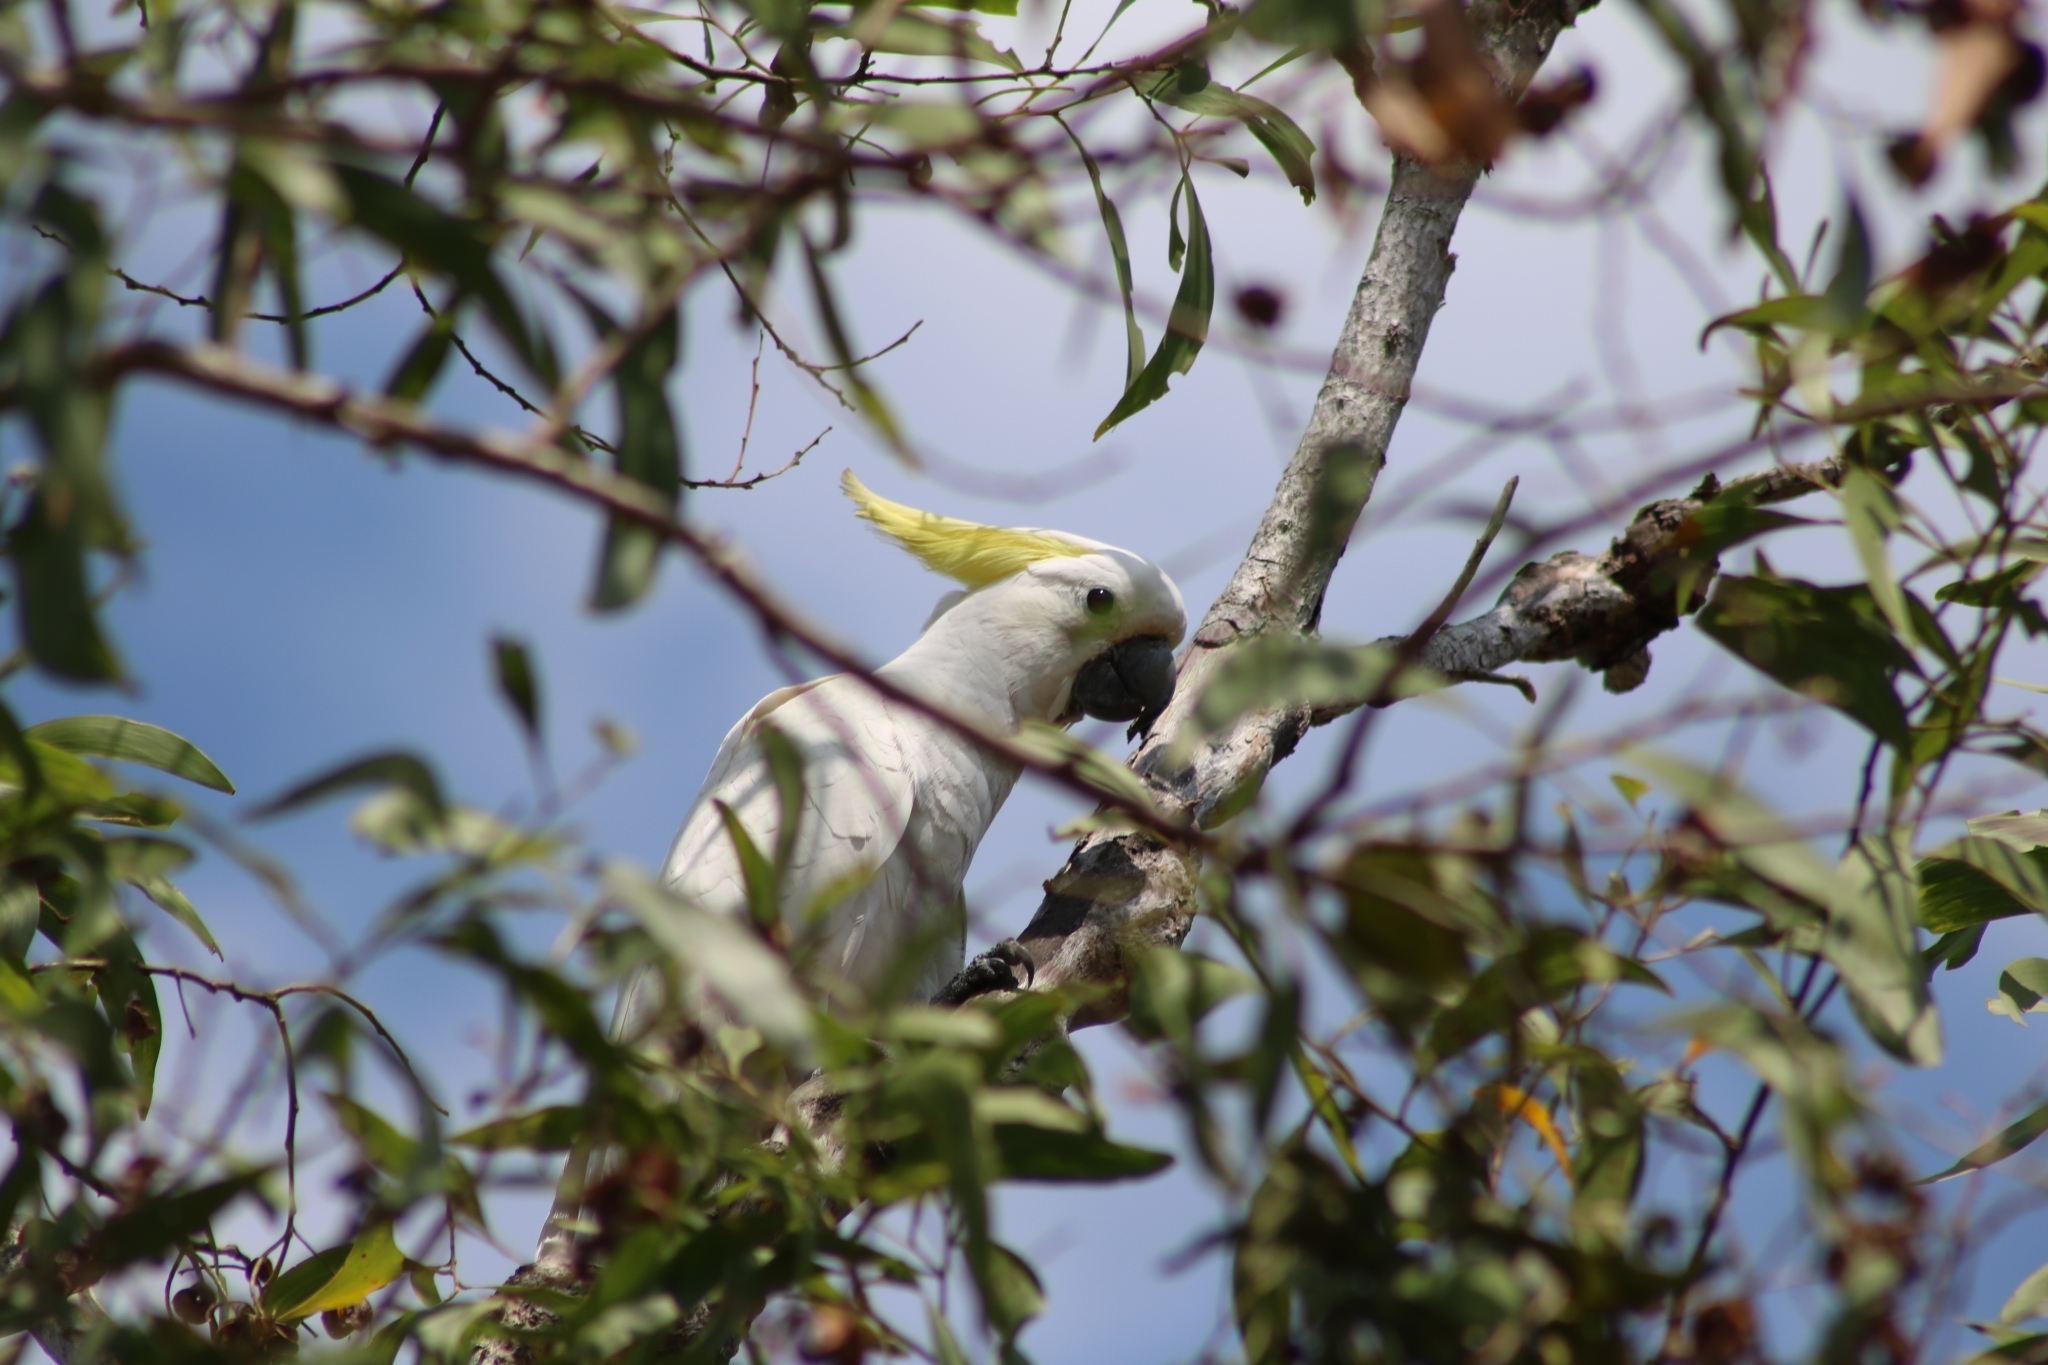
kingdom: Animalia
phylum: Chordata
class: Aves
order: Psittaciformes
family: Psittacidae
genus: Cacatua
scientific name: Cacatua galerita
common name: Sulphur-crested cockatoo
